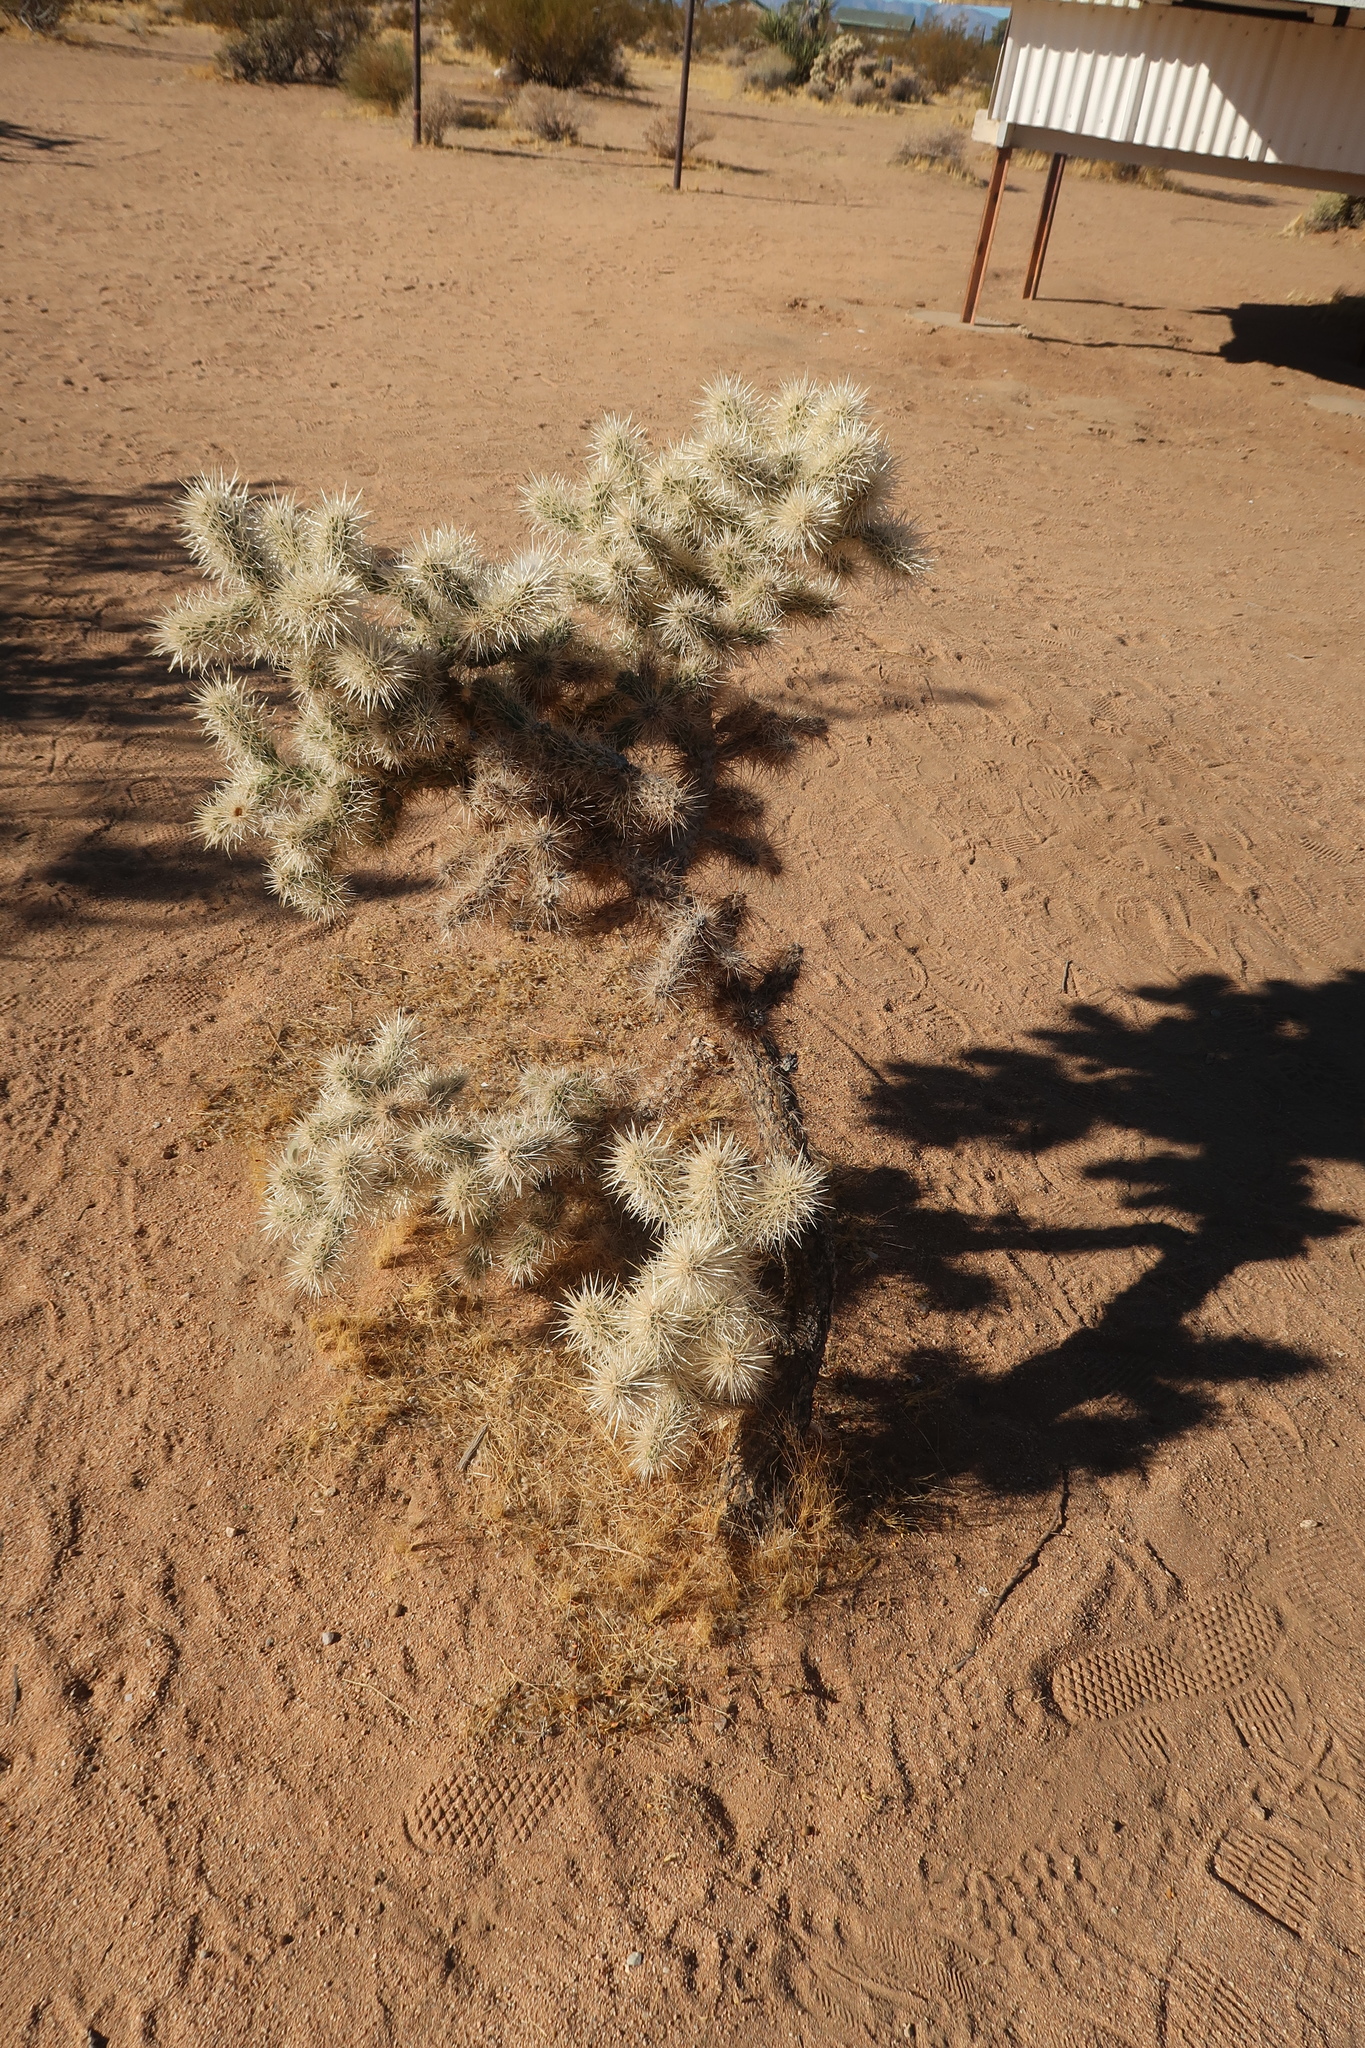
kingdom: Plantae
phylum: Tracheophyta
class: Magnoliopsida
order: Caryophyllales
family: Cactaceae
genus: Cylindropuntia
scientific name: Cylindropuntia echinocarpa
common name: Ground cholla
